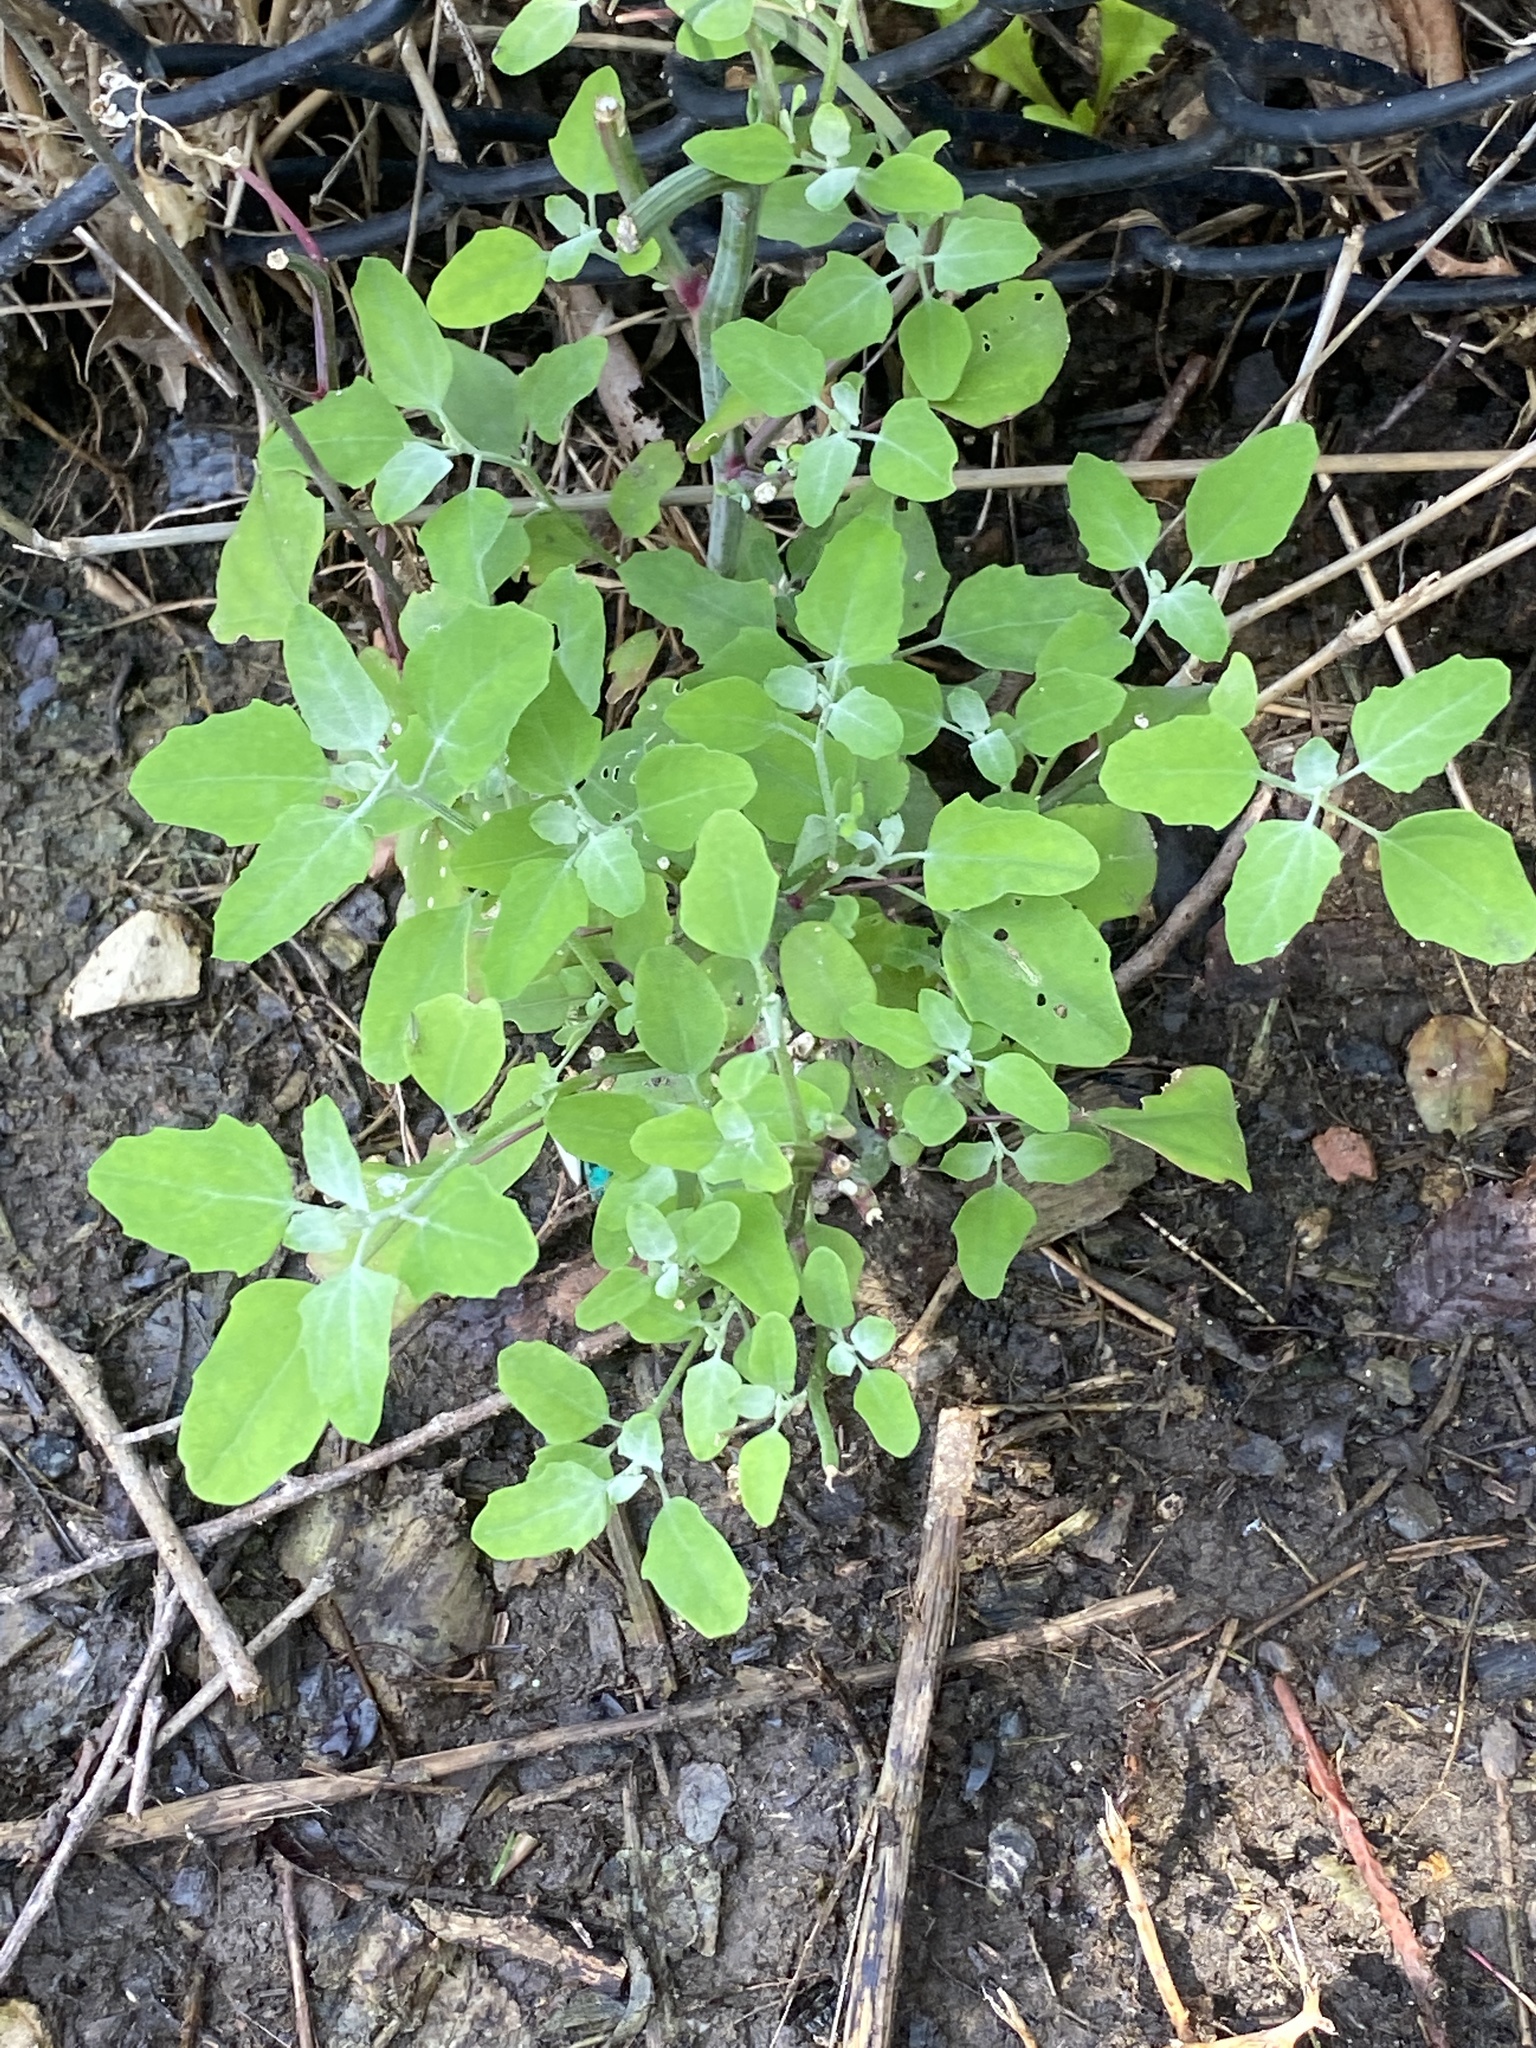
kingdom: Plantae
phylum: Tracheophyta
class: Magnoliopsida
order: Caryophyllales
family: Amaranthaceae
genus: Chenopodium
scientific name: Chenopodium album
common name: Fat-hen
